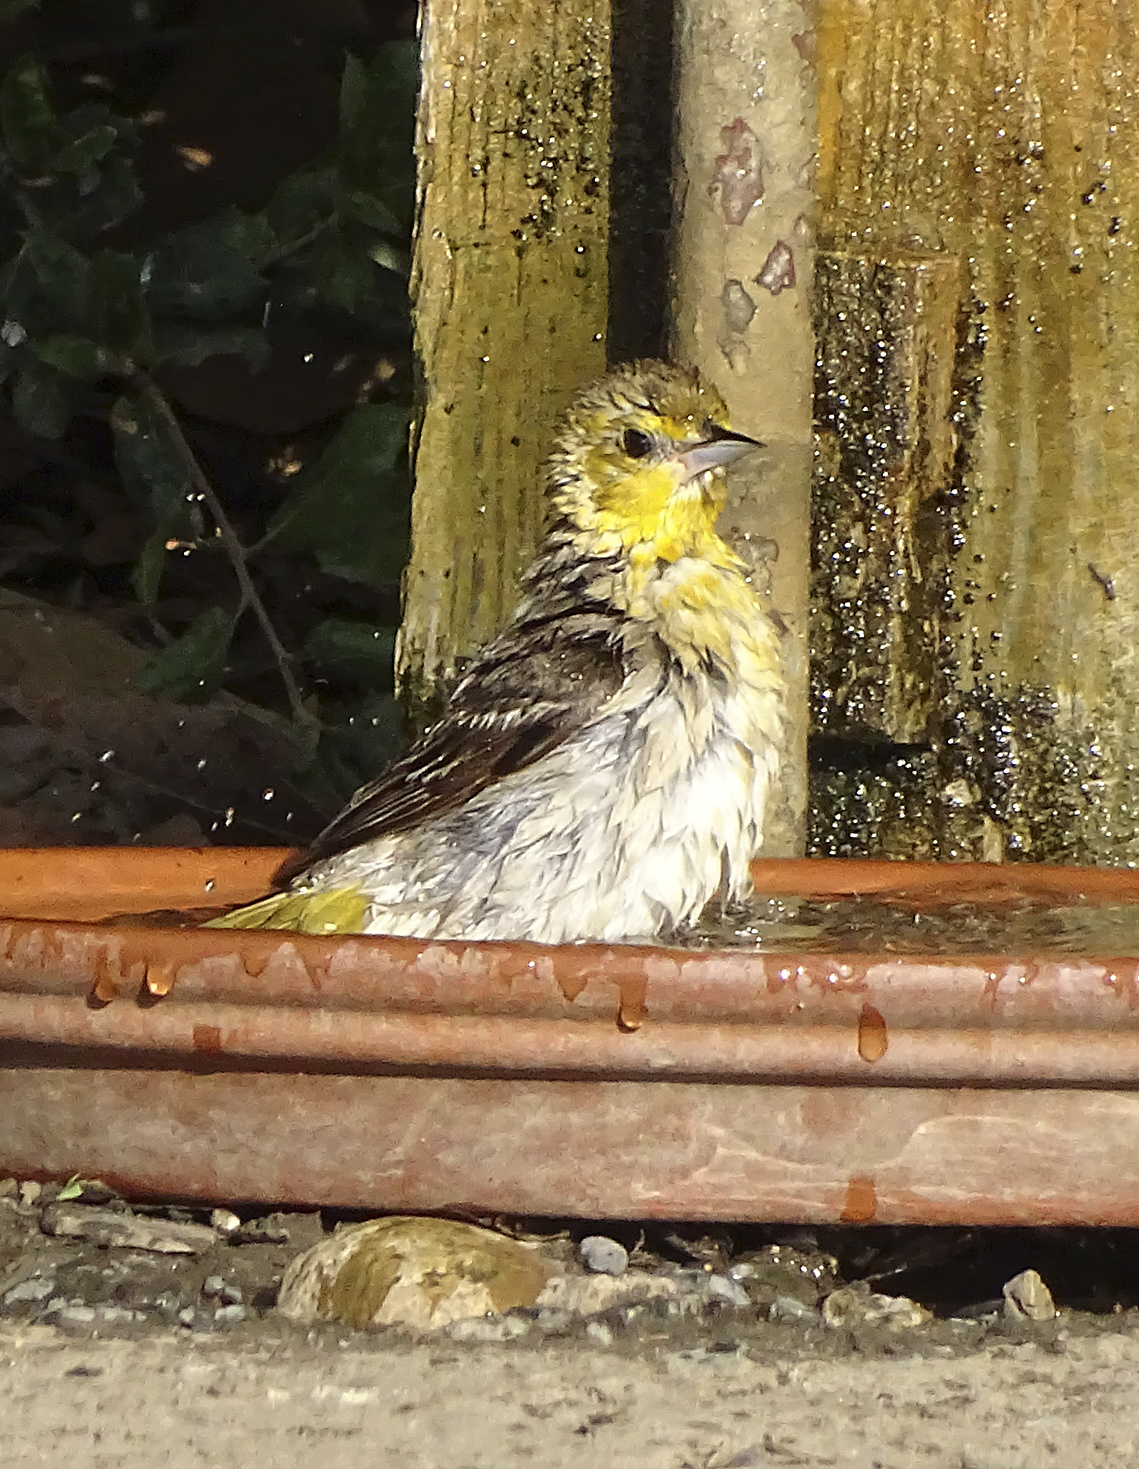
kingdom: Animalia
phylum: Chordata
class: Aves
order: Passeriformes
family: Icteridae
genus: Icterus
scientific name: Icterus bullockii
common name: Bullock's oriole
